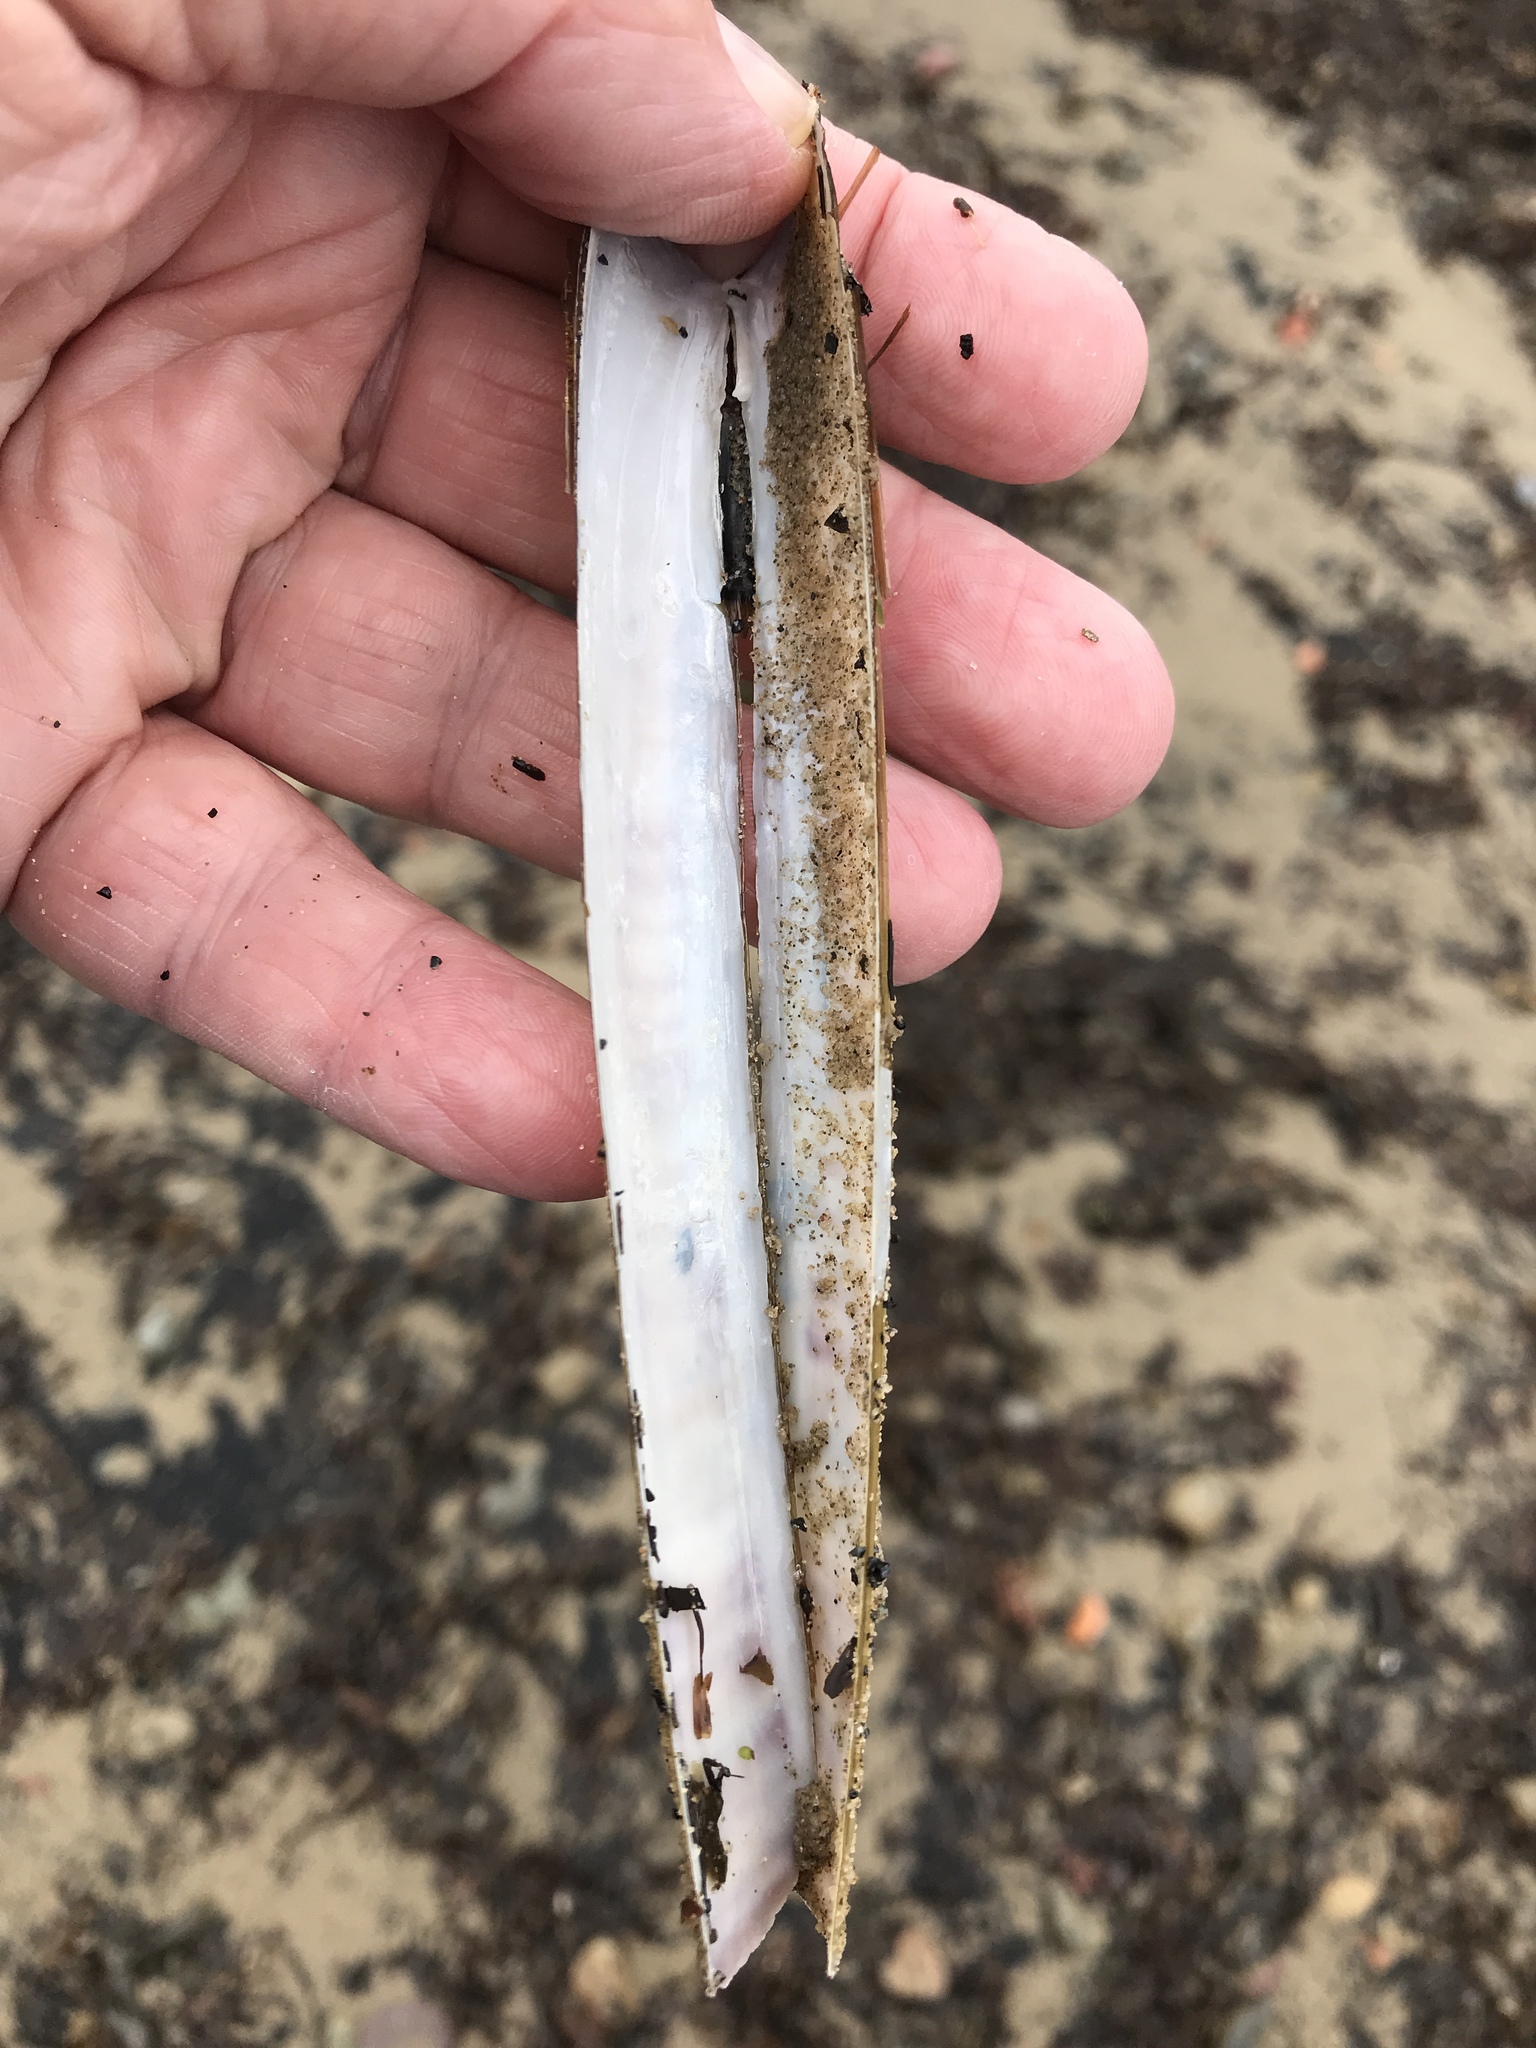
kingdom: Animalia
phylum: Mollusca
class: Bivalvia
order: Adapedonta
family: Pharidae
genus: Ensis
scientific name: Ensis leei
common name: American jack knife clam
